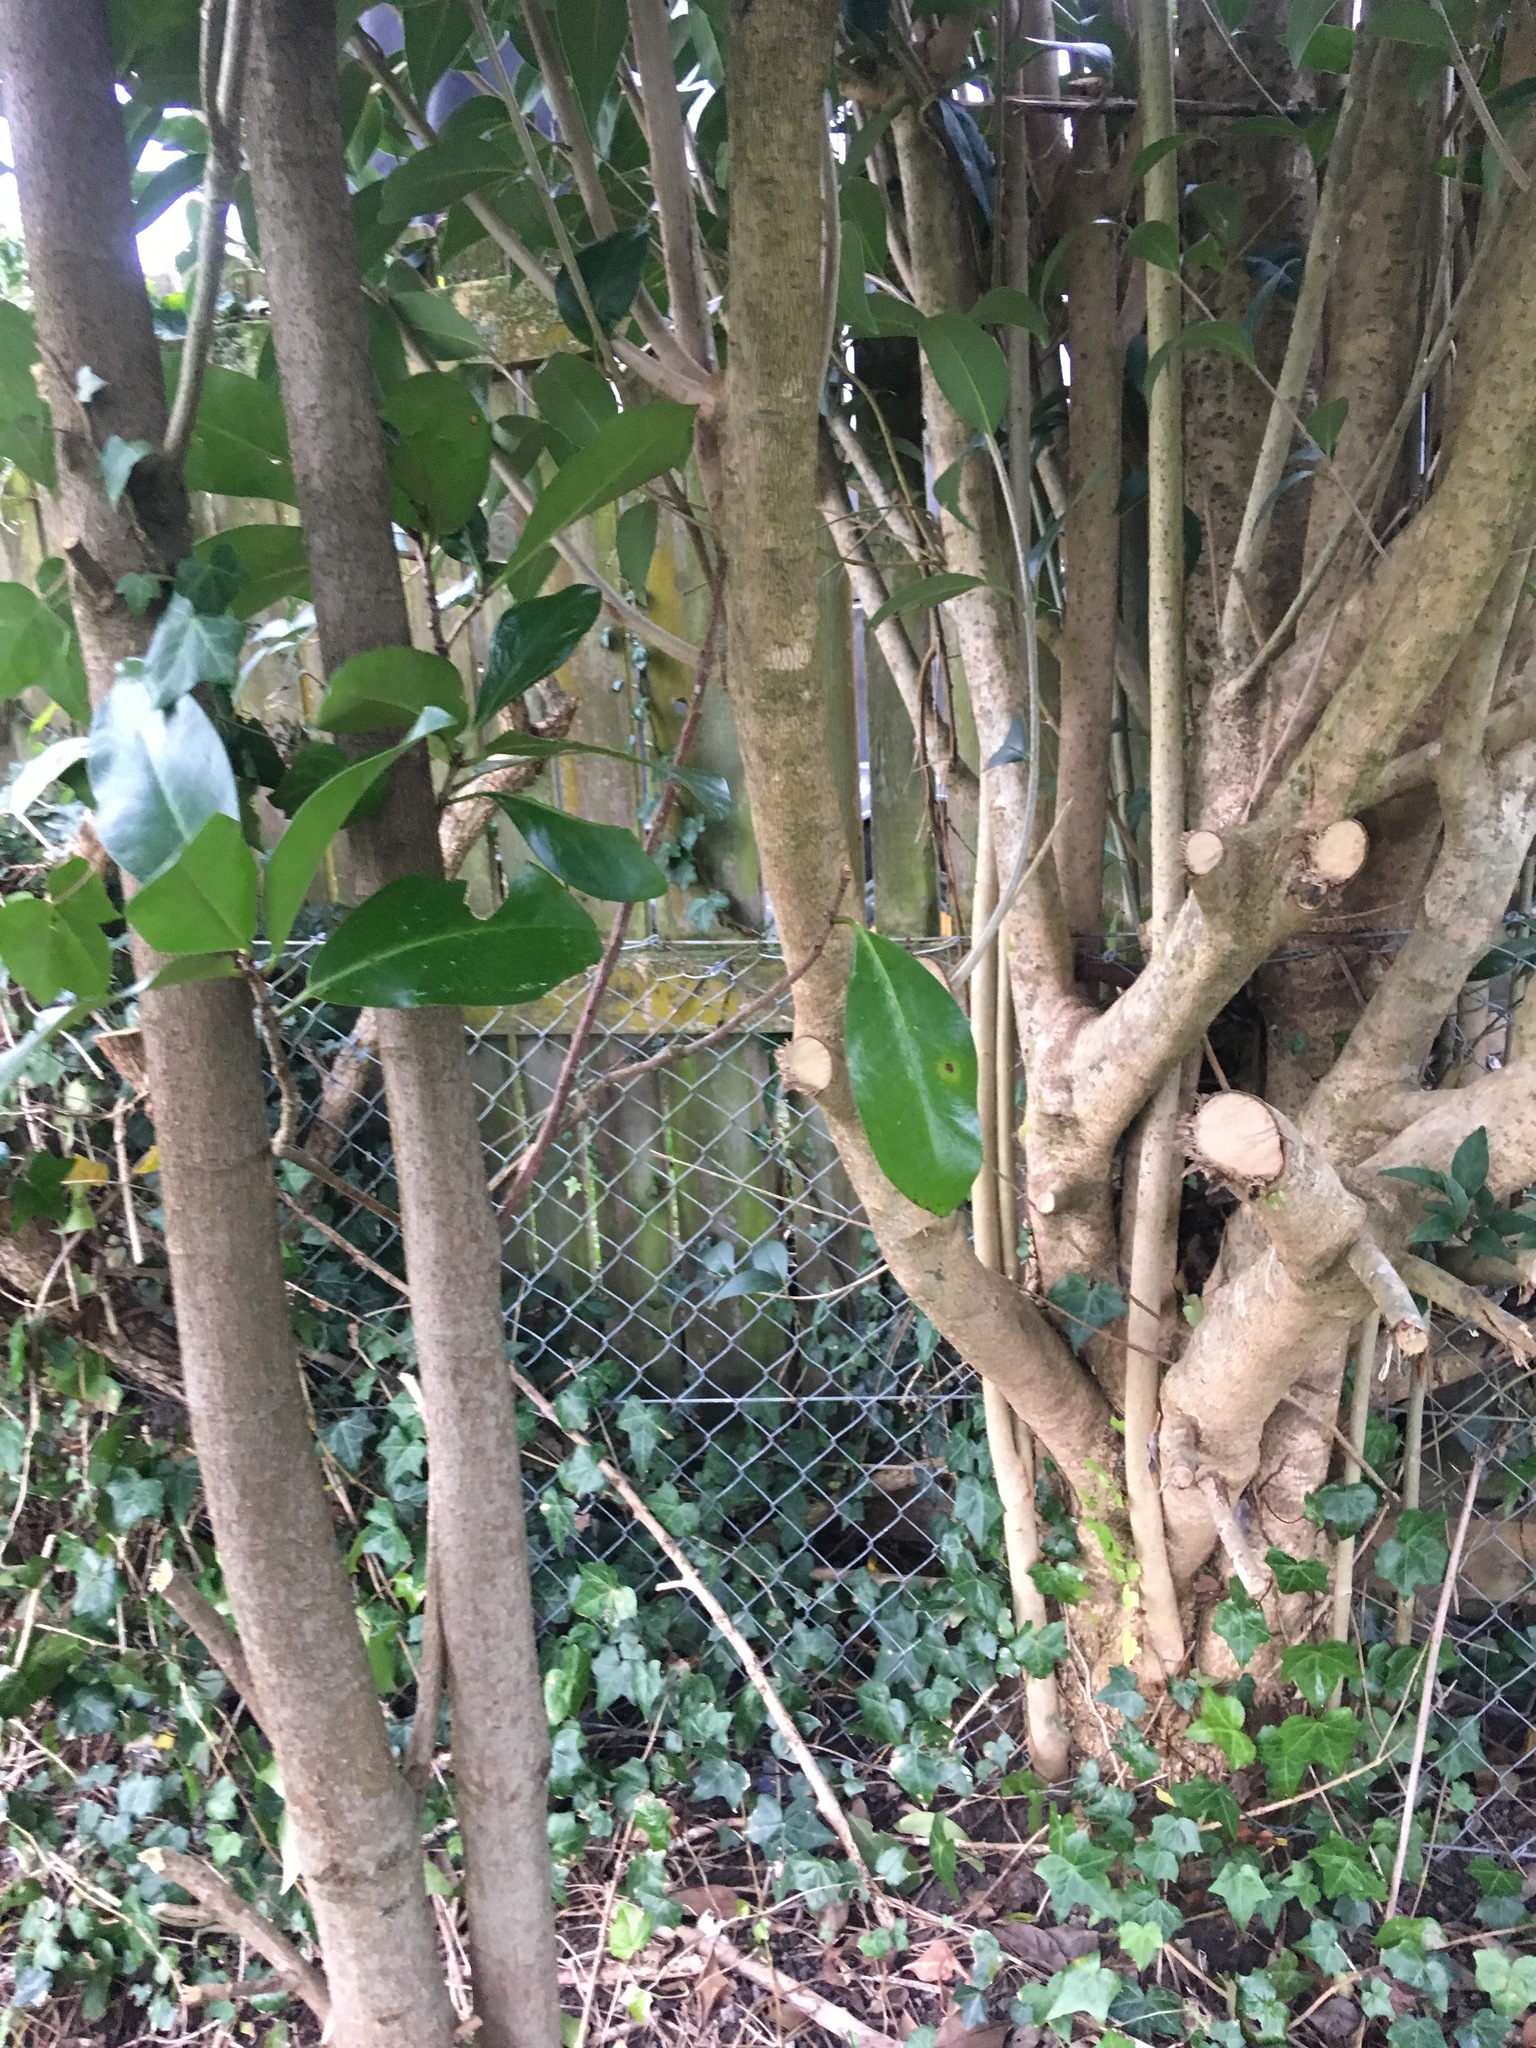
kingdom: Plantae
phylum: Tracheophyta
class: Magnoliopsida
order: Lamiales
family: Oleaceae
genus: Ligustrum
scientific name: Ligustrum lucidum
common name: Glossy privet
